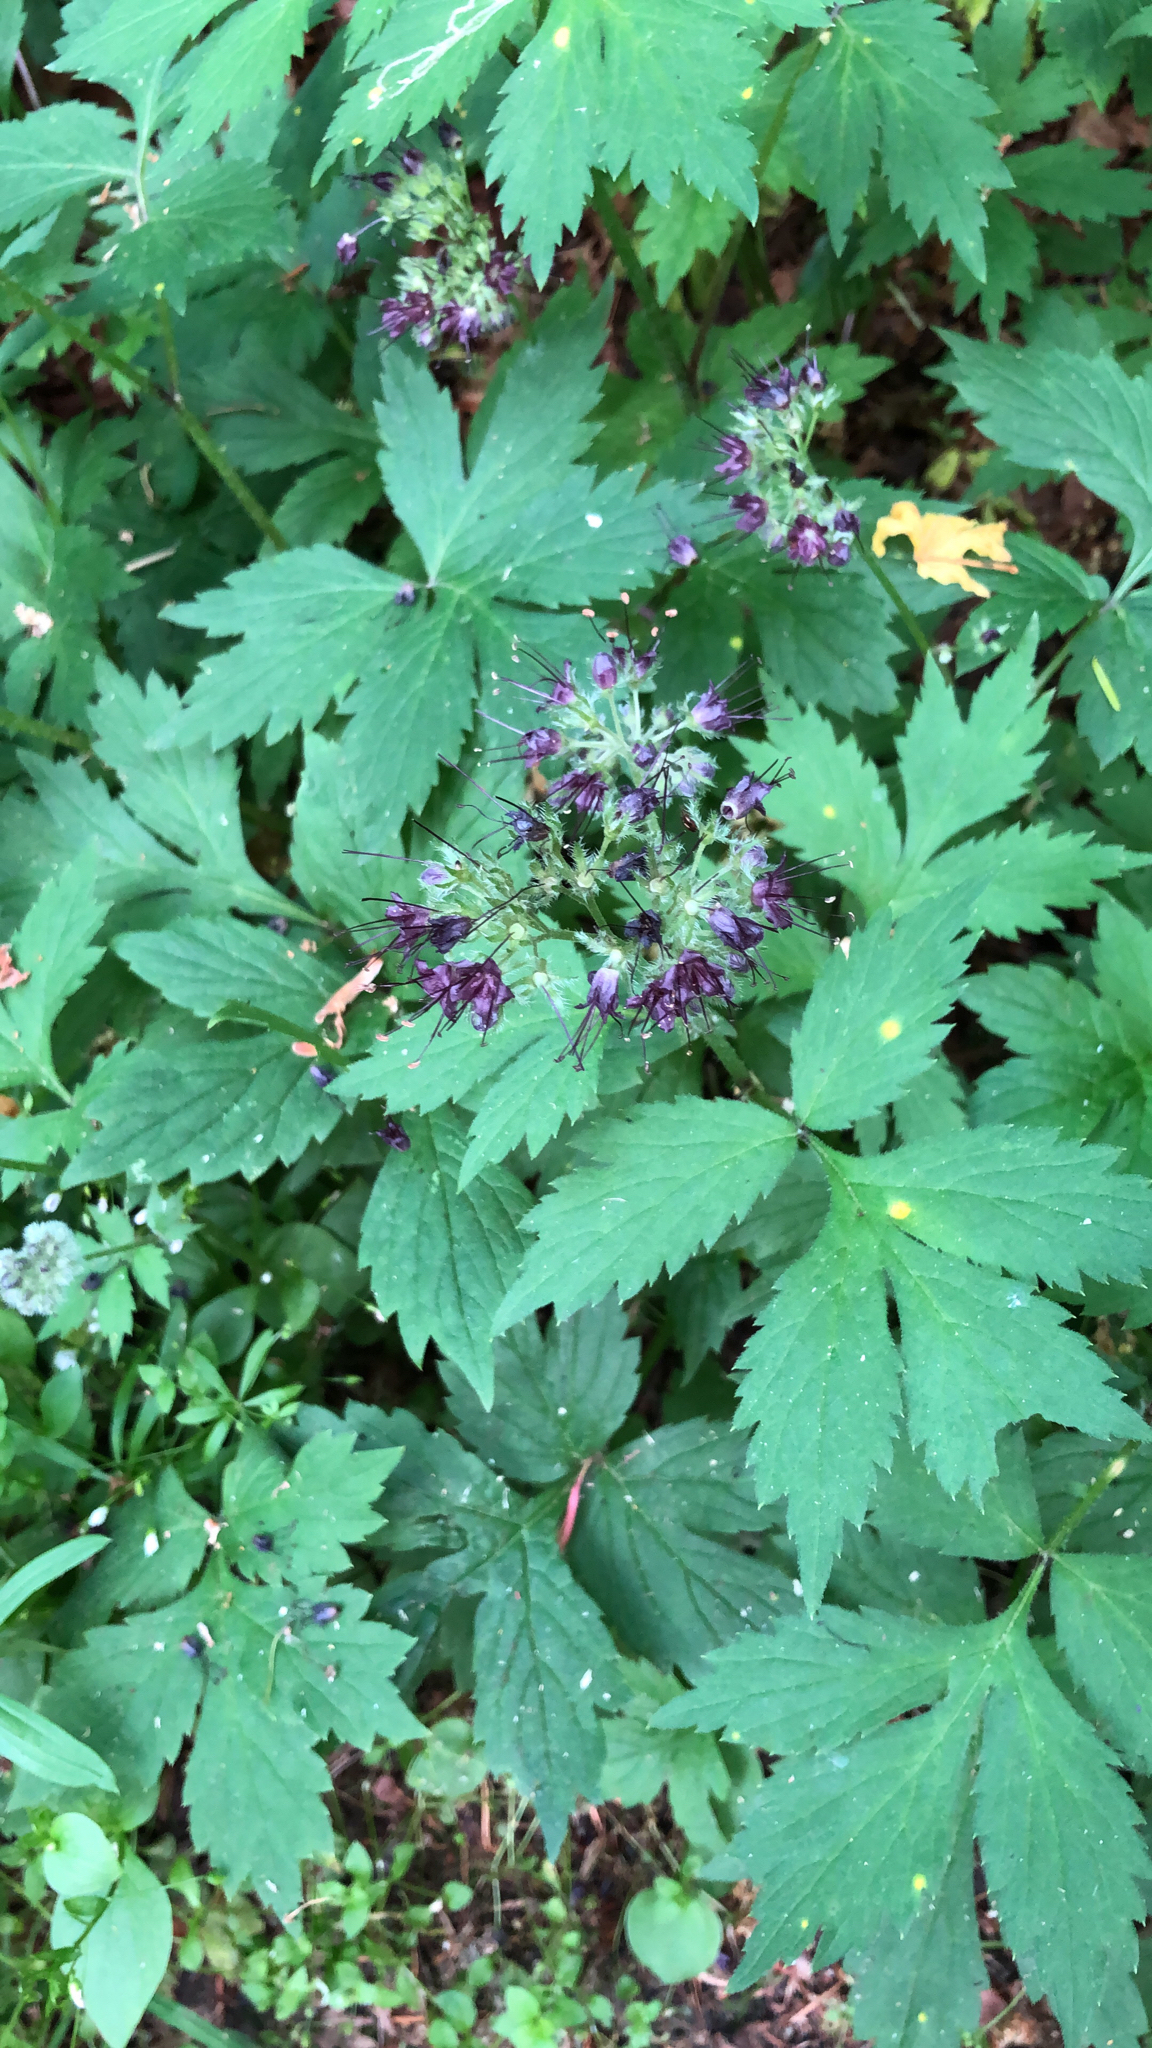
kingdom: Plantae
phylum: Tracheophyta
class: Magnoliopsida
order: Boraginales
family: Hydrophyllaceae
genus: Hydrophyllum
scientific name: Hydrophyllum tenuipes
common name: Pacific waterleaf
